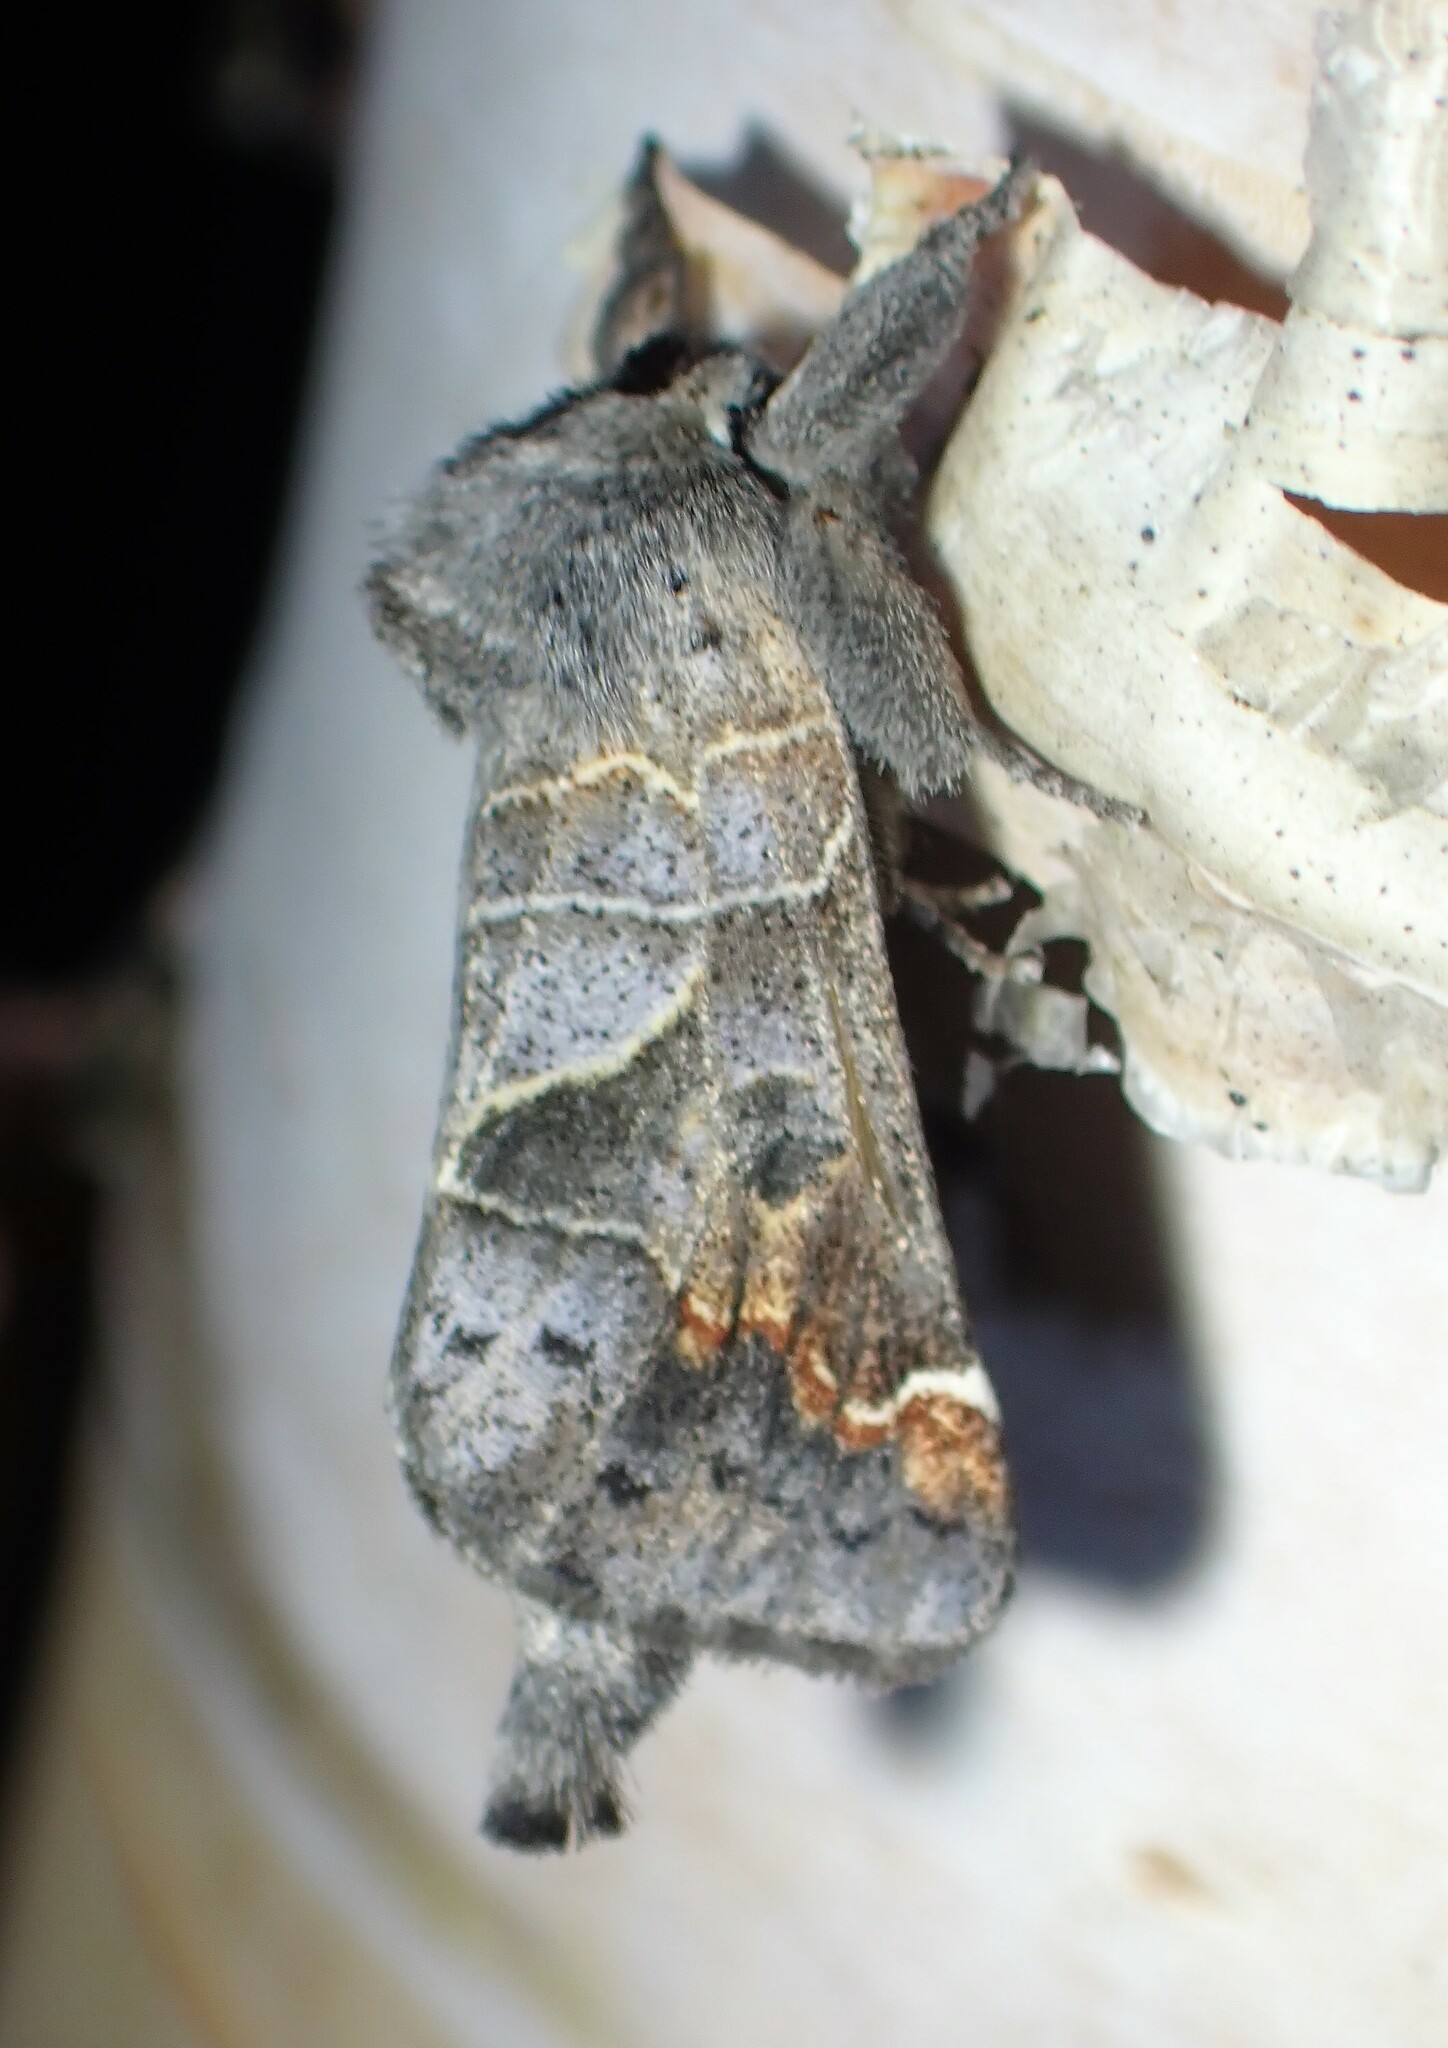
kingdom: Animalia
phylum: Arthropoda
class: Insecta
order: Lepidoptera
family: Notodontidae
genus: Clostera
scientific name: Clostera apicalis
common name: Apical prominent
